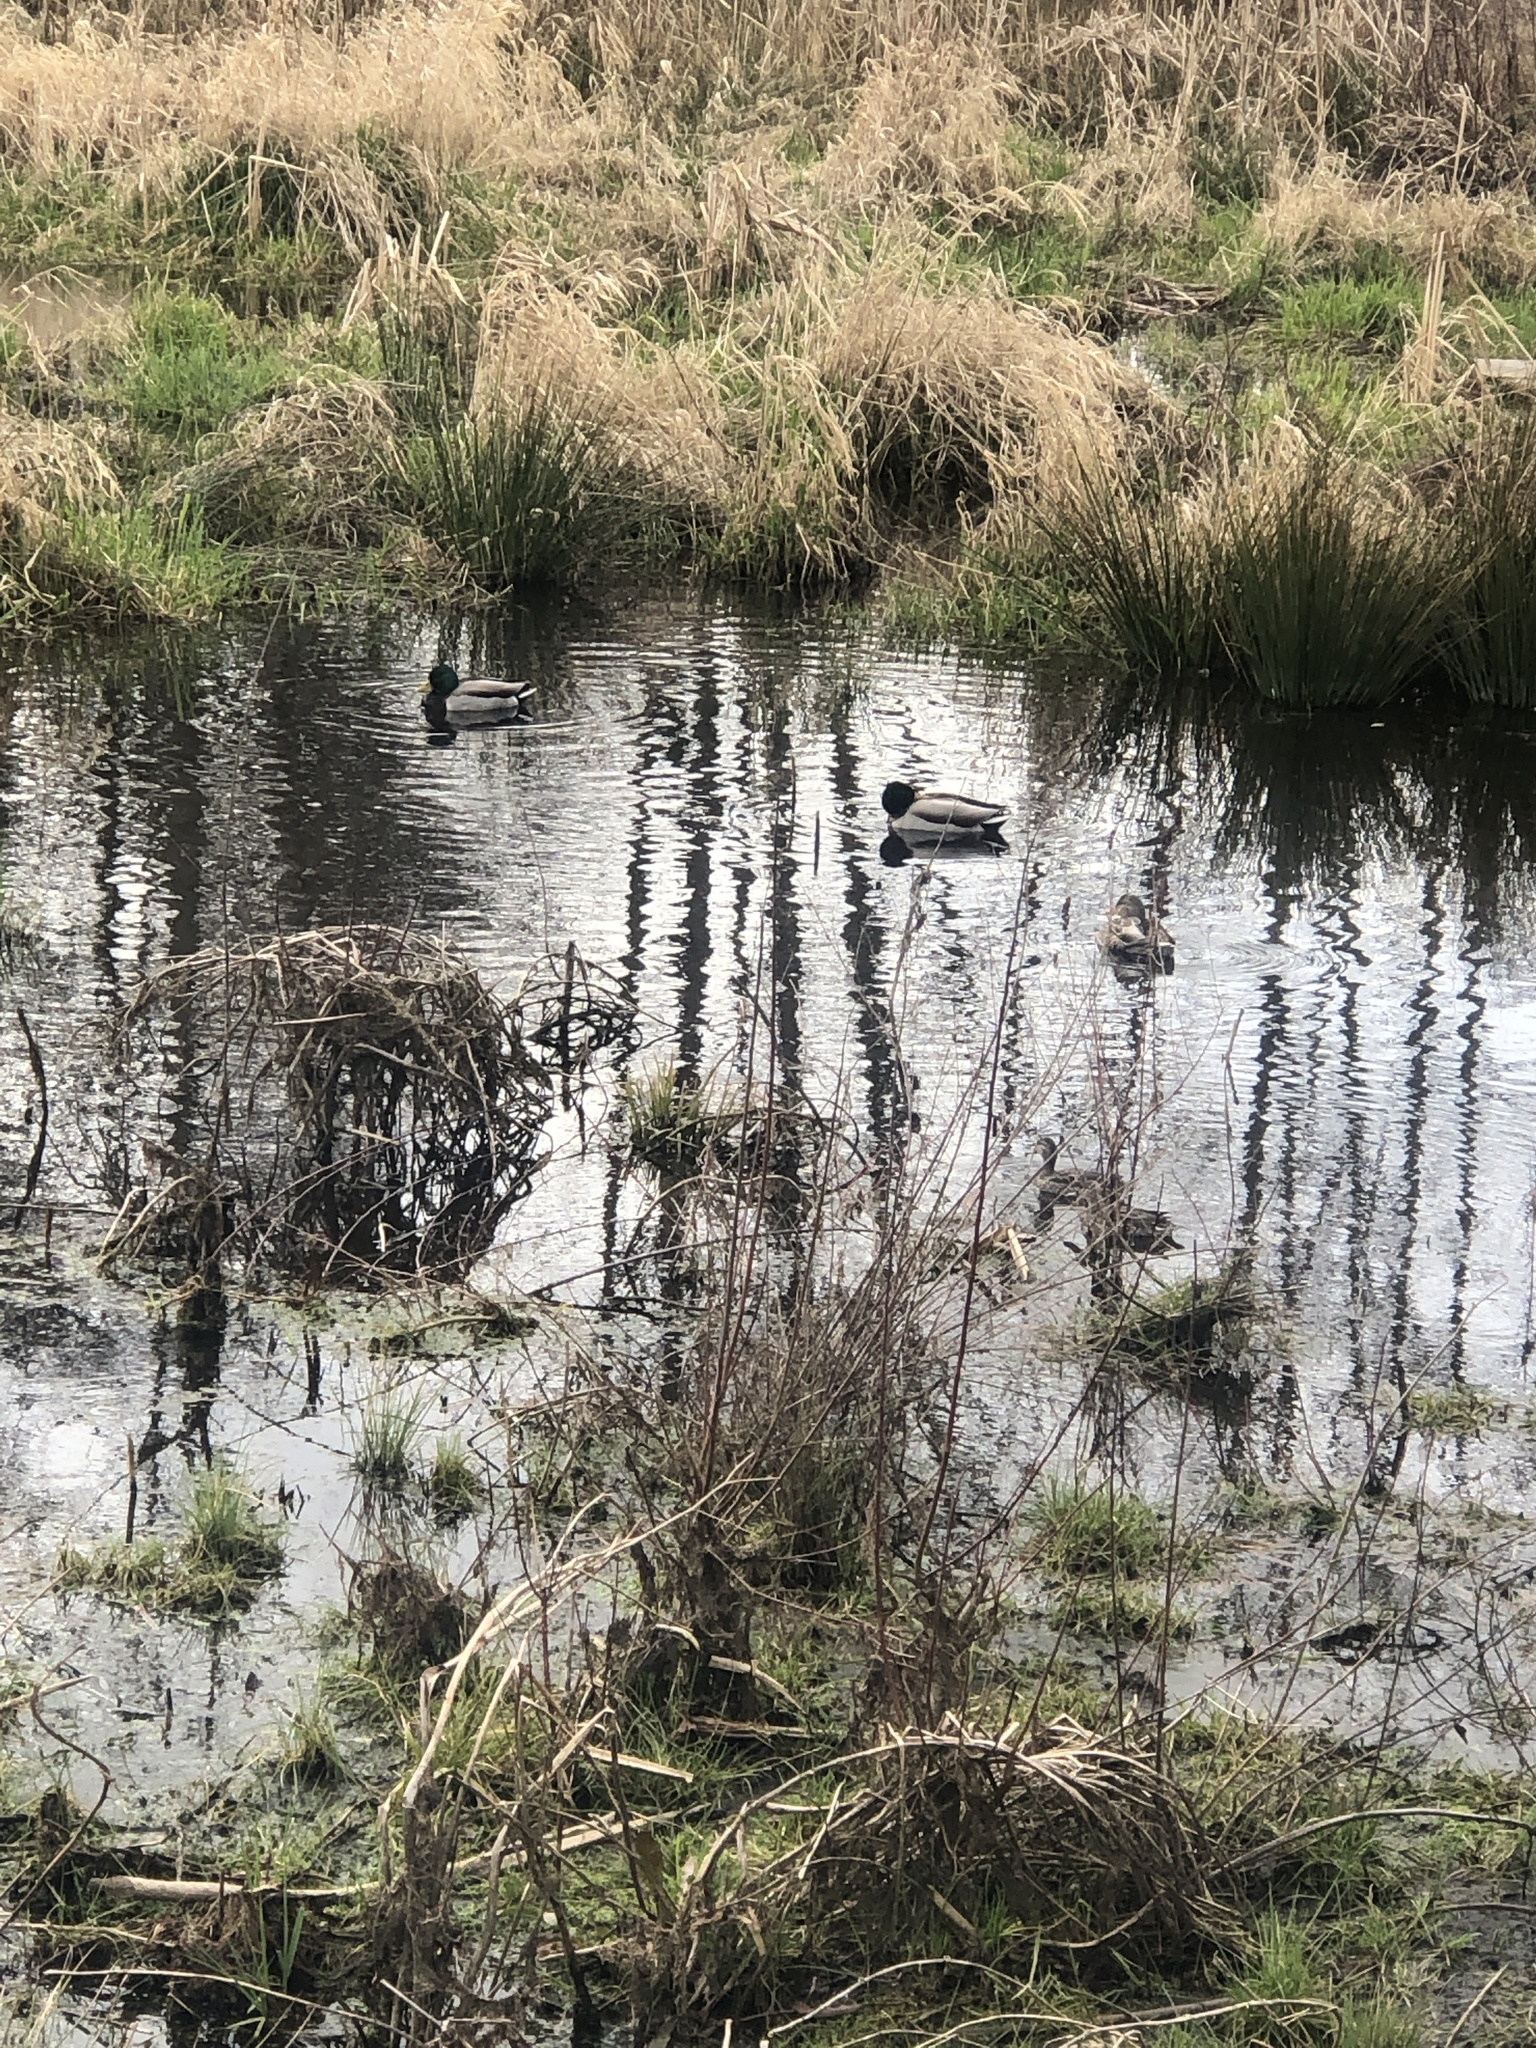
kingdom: Animalia
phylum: Chordata
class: Aves
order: Anseriformes
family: Anatidae
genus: Anas
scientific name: Anas platyrhynchos
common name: Mallard
